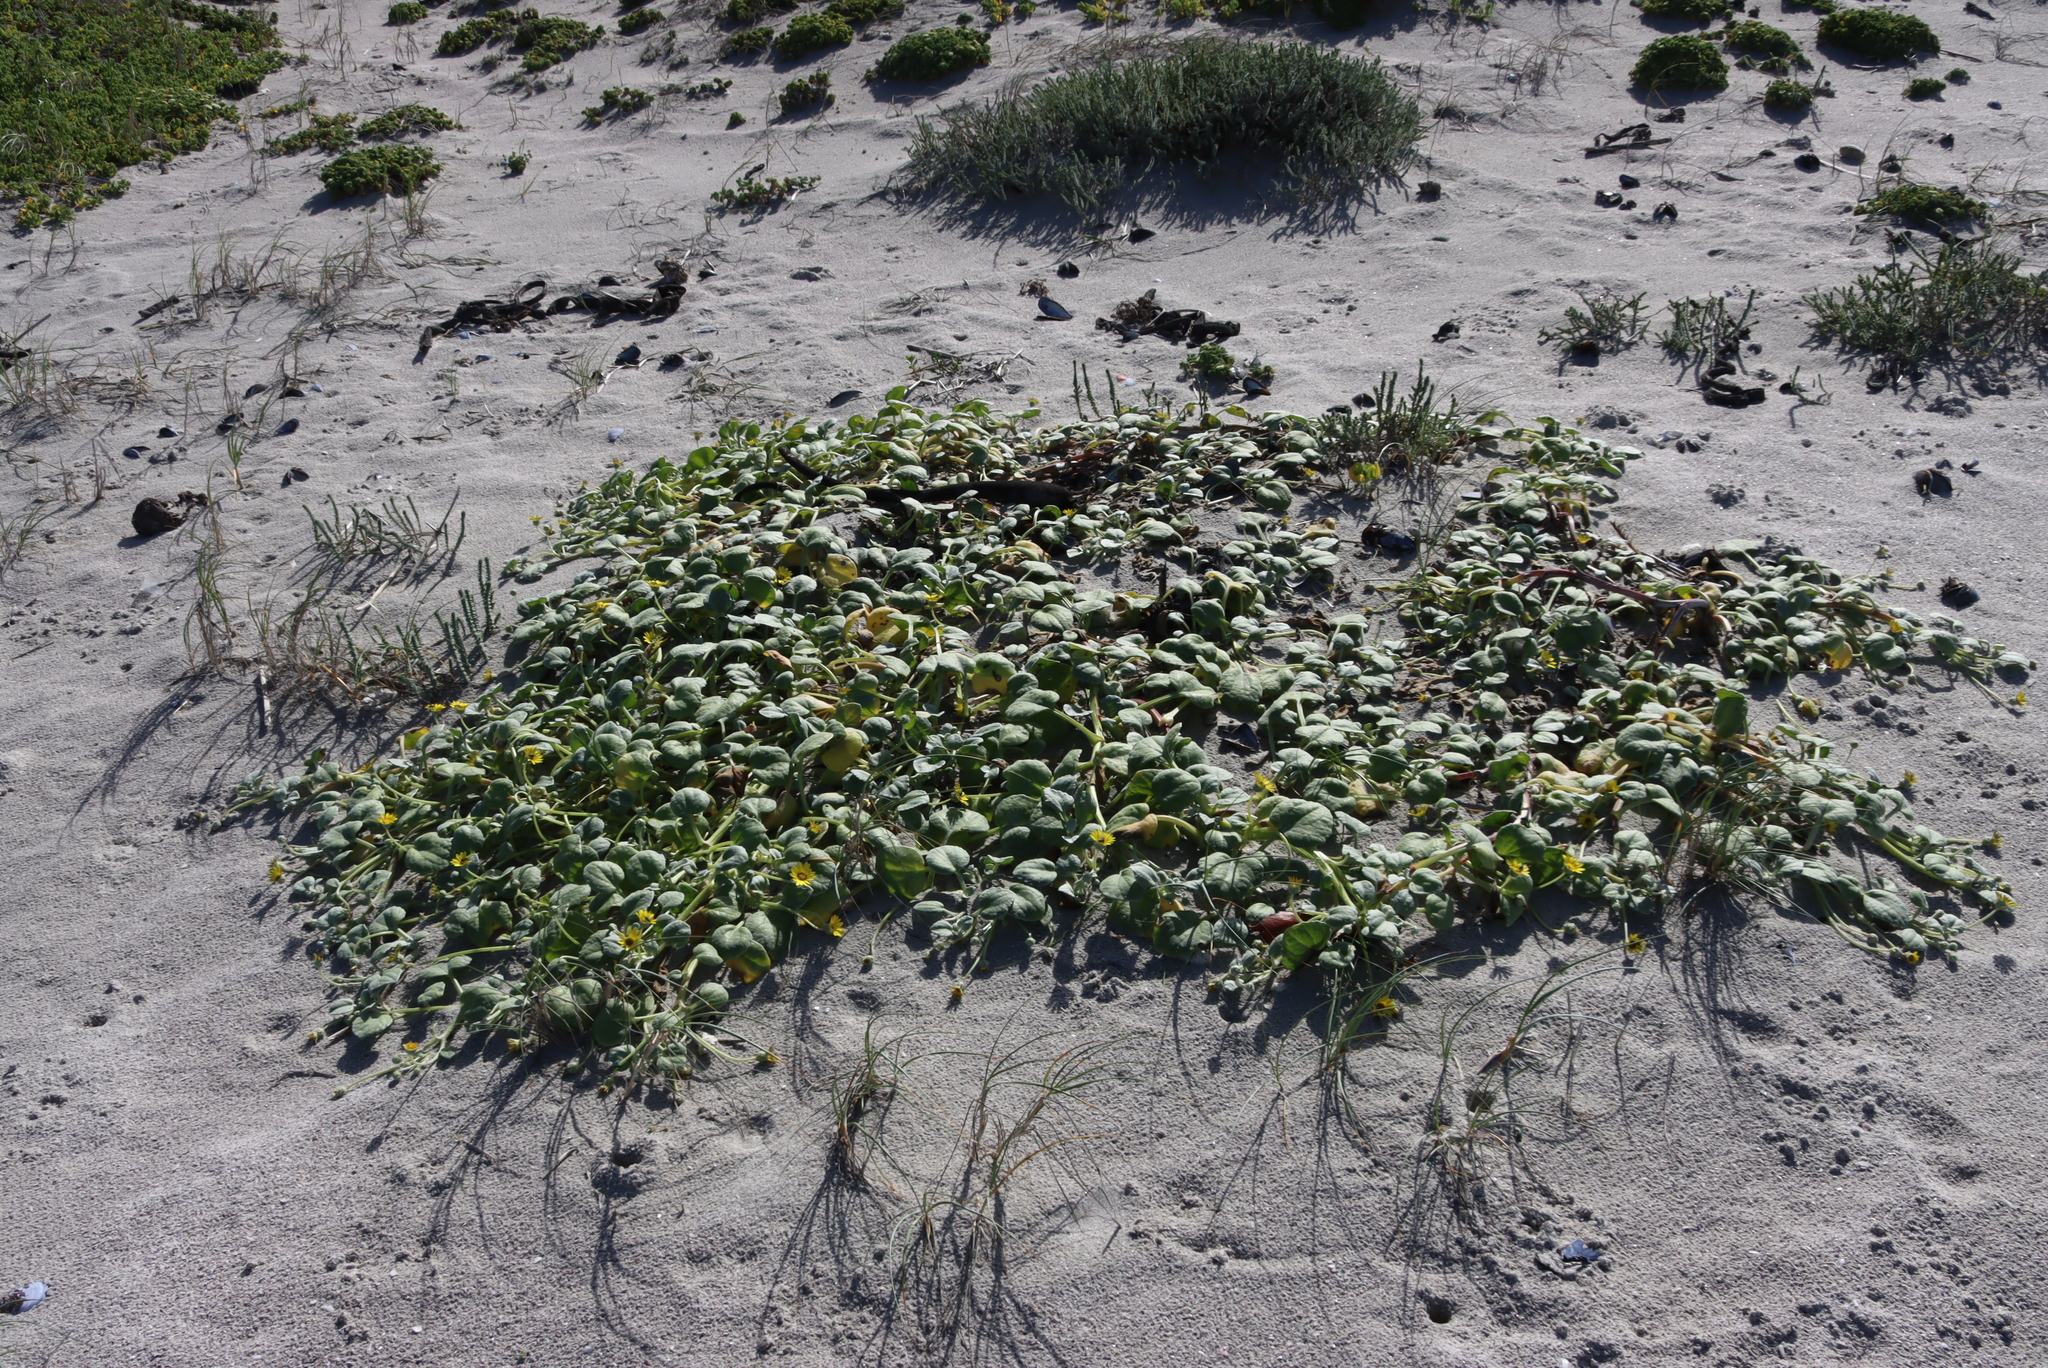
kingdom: Plantae
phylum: Tracheophyta
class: Magnoliopsida
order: Asterales
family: Asteraceae
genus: Arctotheca
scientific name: Arctotheca populifolia
